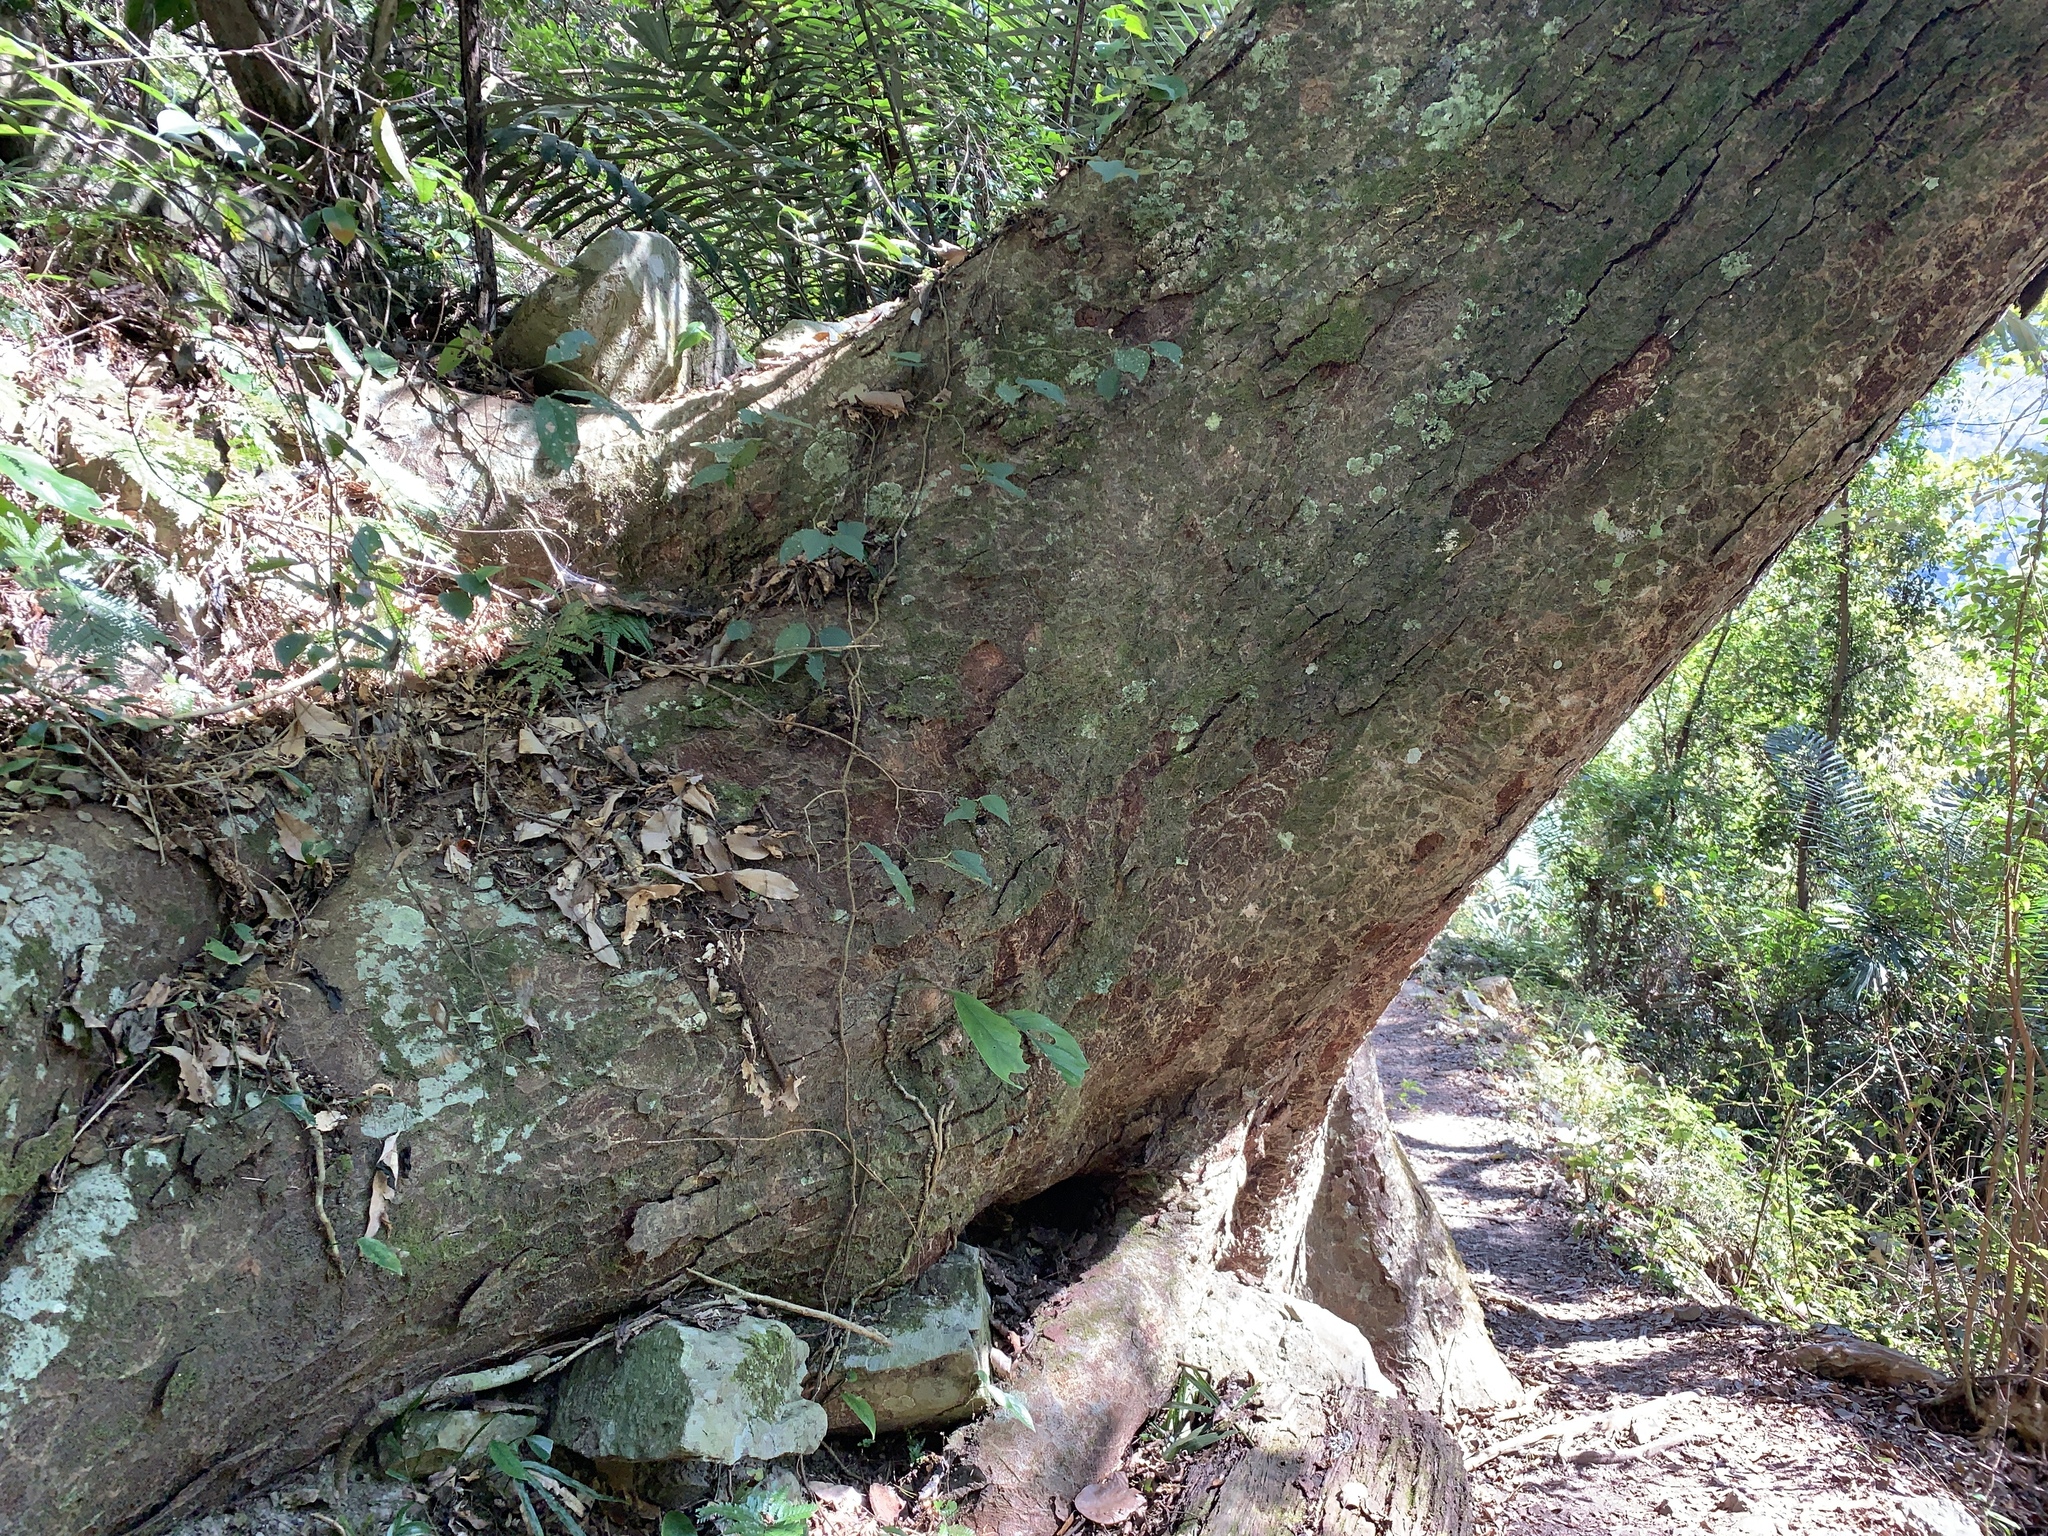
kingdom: Plantae
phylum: Tracheophyta
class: Magnoliopsida
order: Rosales
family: Ulmaceae
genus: Zelkova
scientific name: Zelkova serrata
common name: Japanese zelkova
